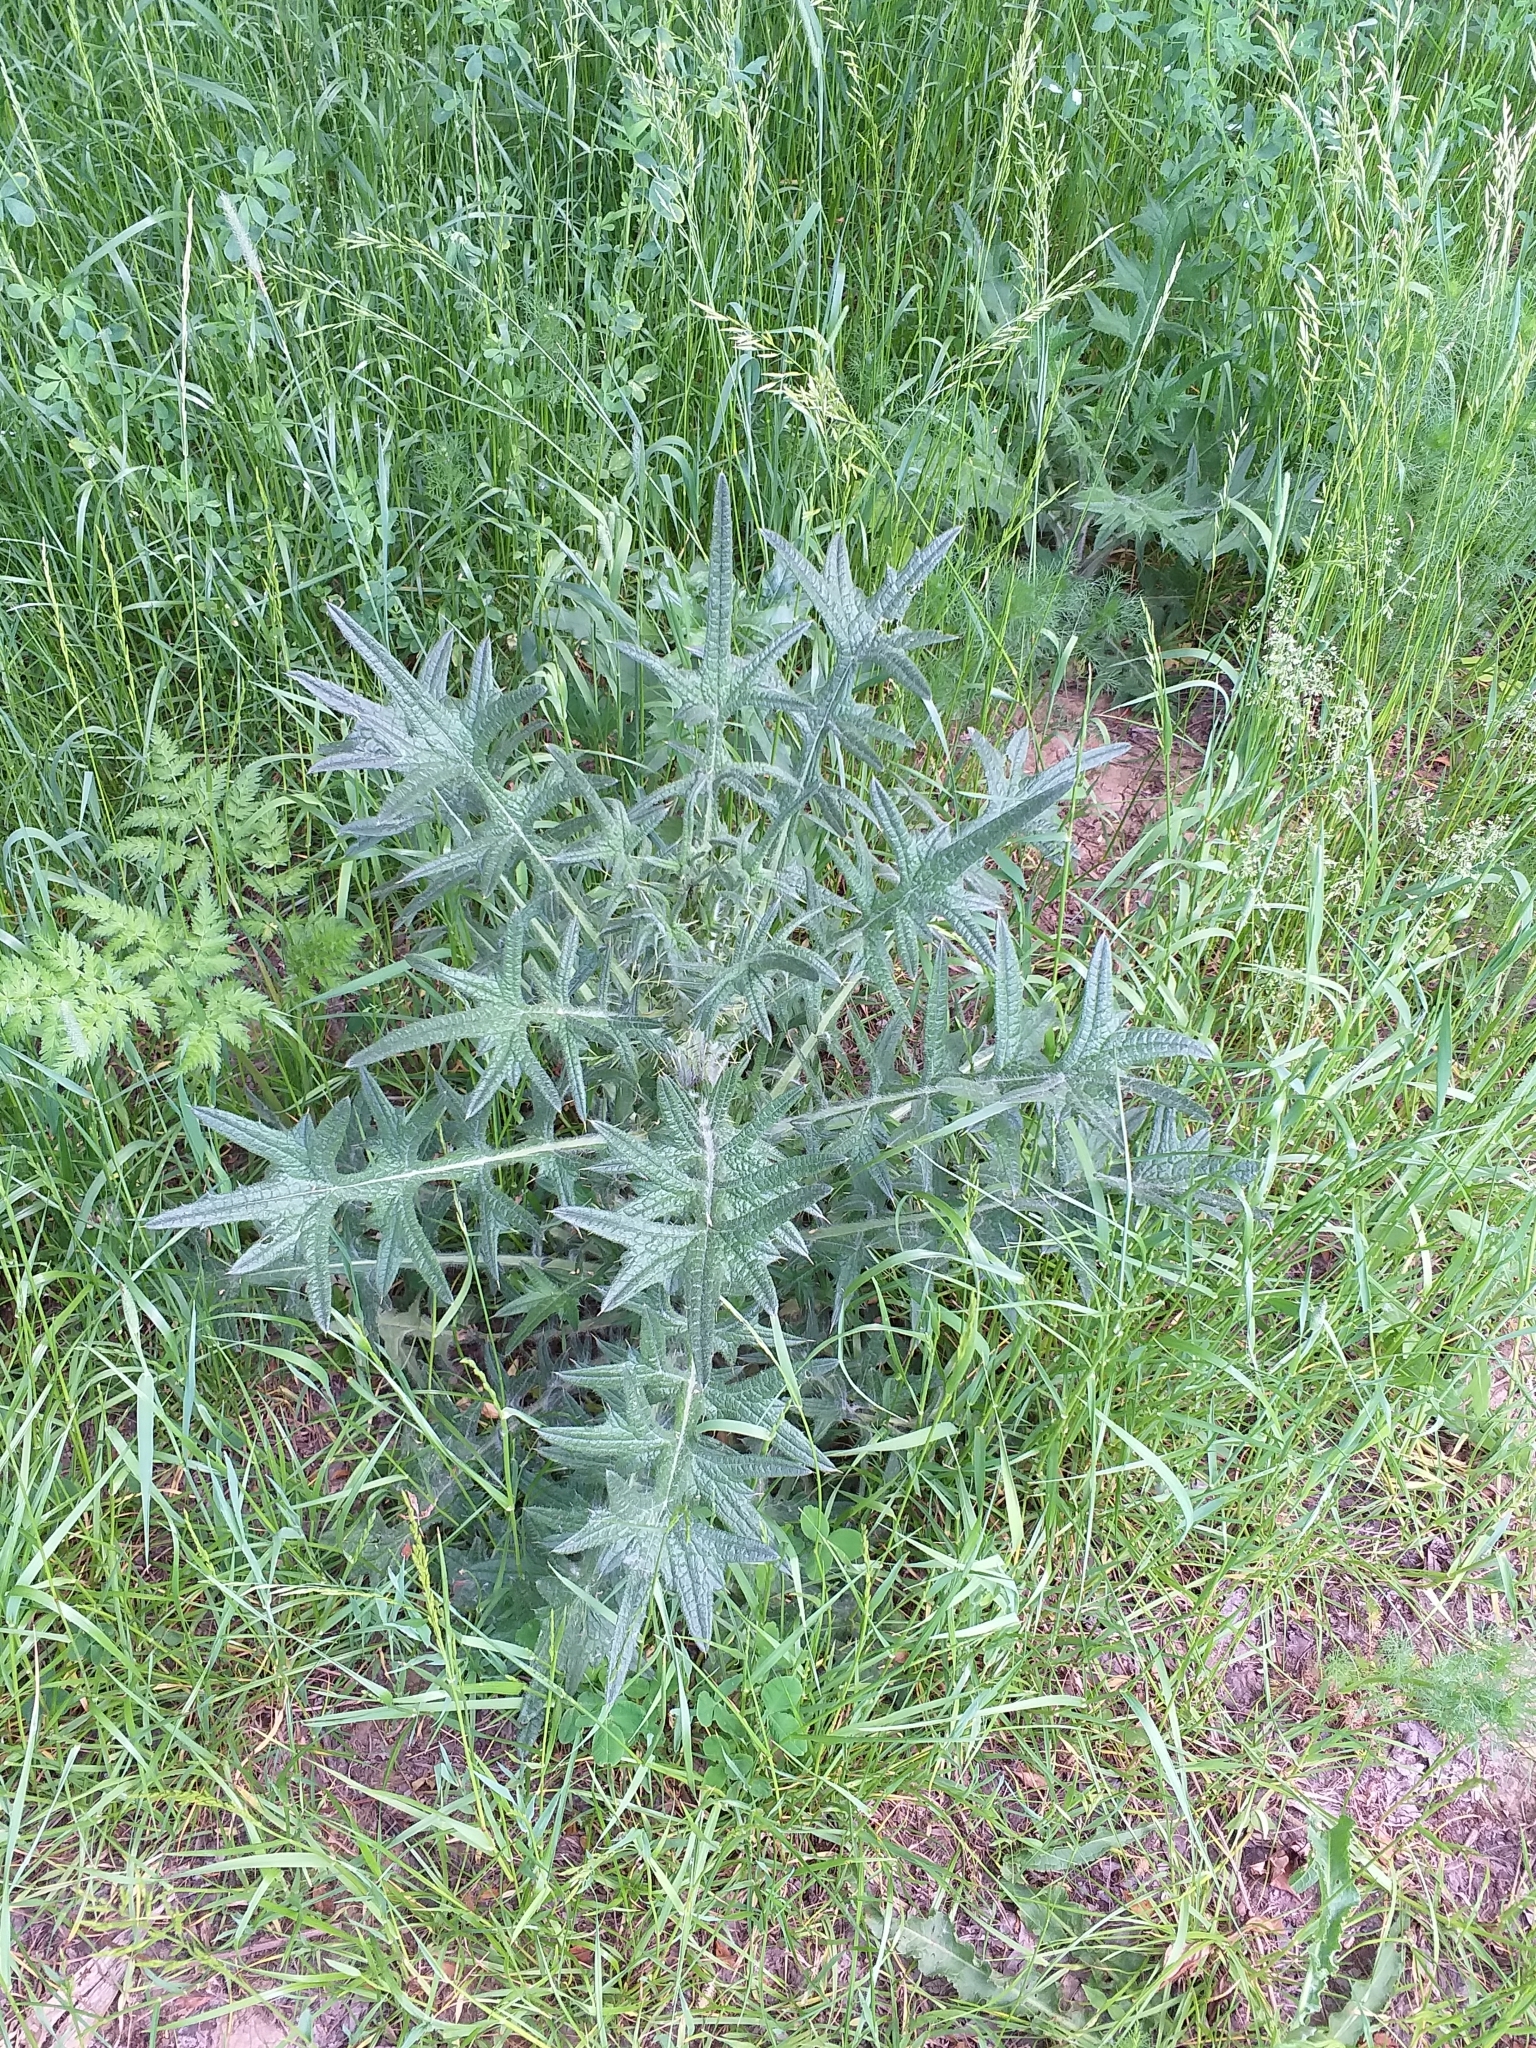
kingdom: Plantae
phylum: Tracheophyta
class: Magnoliopsida
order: Asterales
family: Asteraceae
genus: Cirsium
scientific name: Cirsium vulgare
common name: Bull thistle
